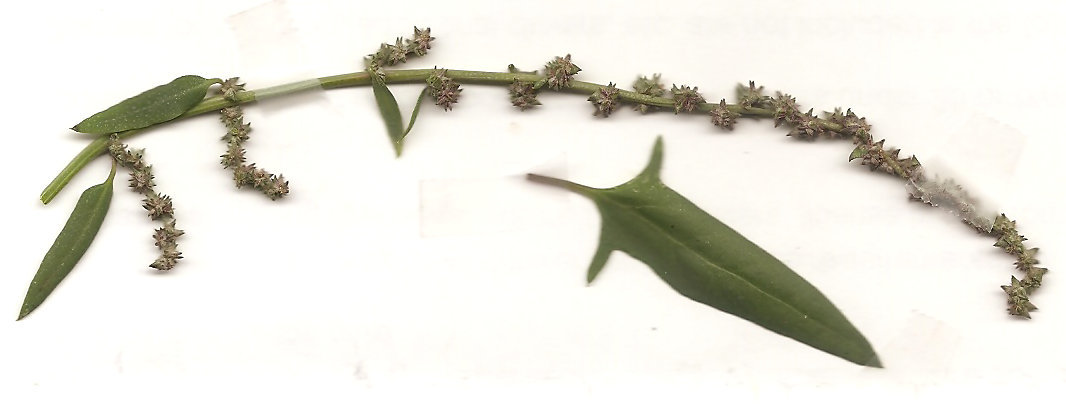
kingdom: Plantae
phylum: Tracheophyta
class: Magnoliopsida
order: Caryophyllales
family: Amaranthaceae
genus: Atriplex
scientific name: Atriplex prostrata
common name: Spear-leaved orache
